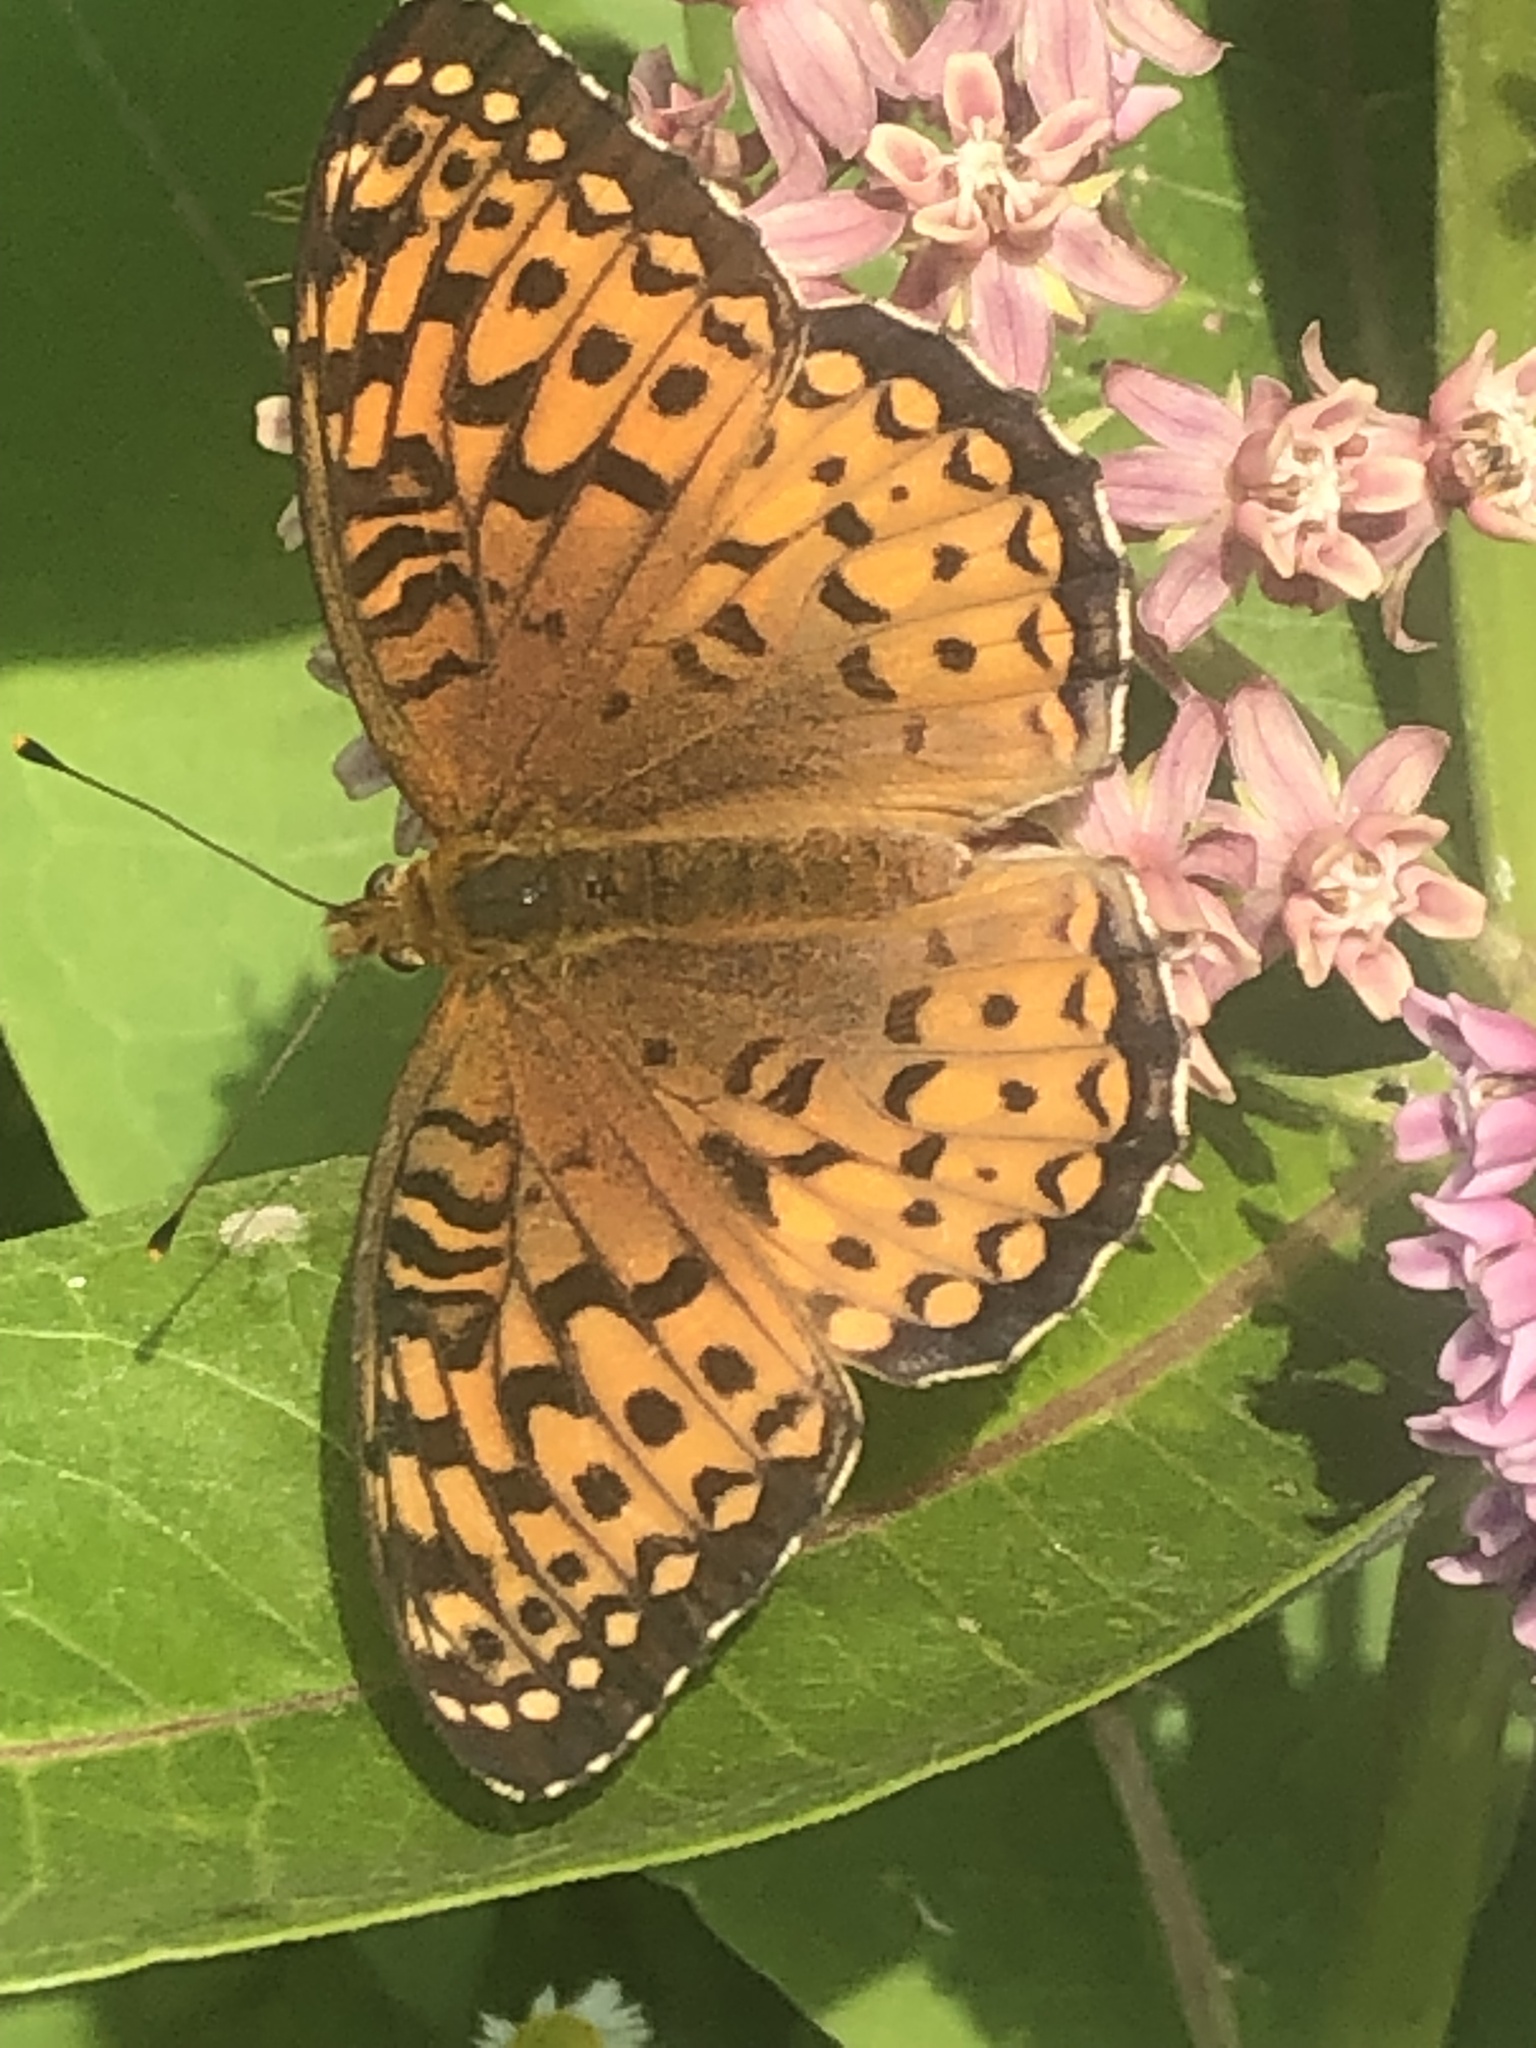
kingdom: Animalia
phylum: Arthropoda
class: Insecta
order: Lepidoptera
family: Nymphalidae
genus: Speyeria
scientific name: Speyeria atlantis
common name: Atlantis fritillary
